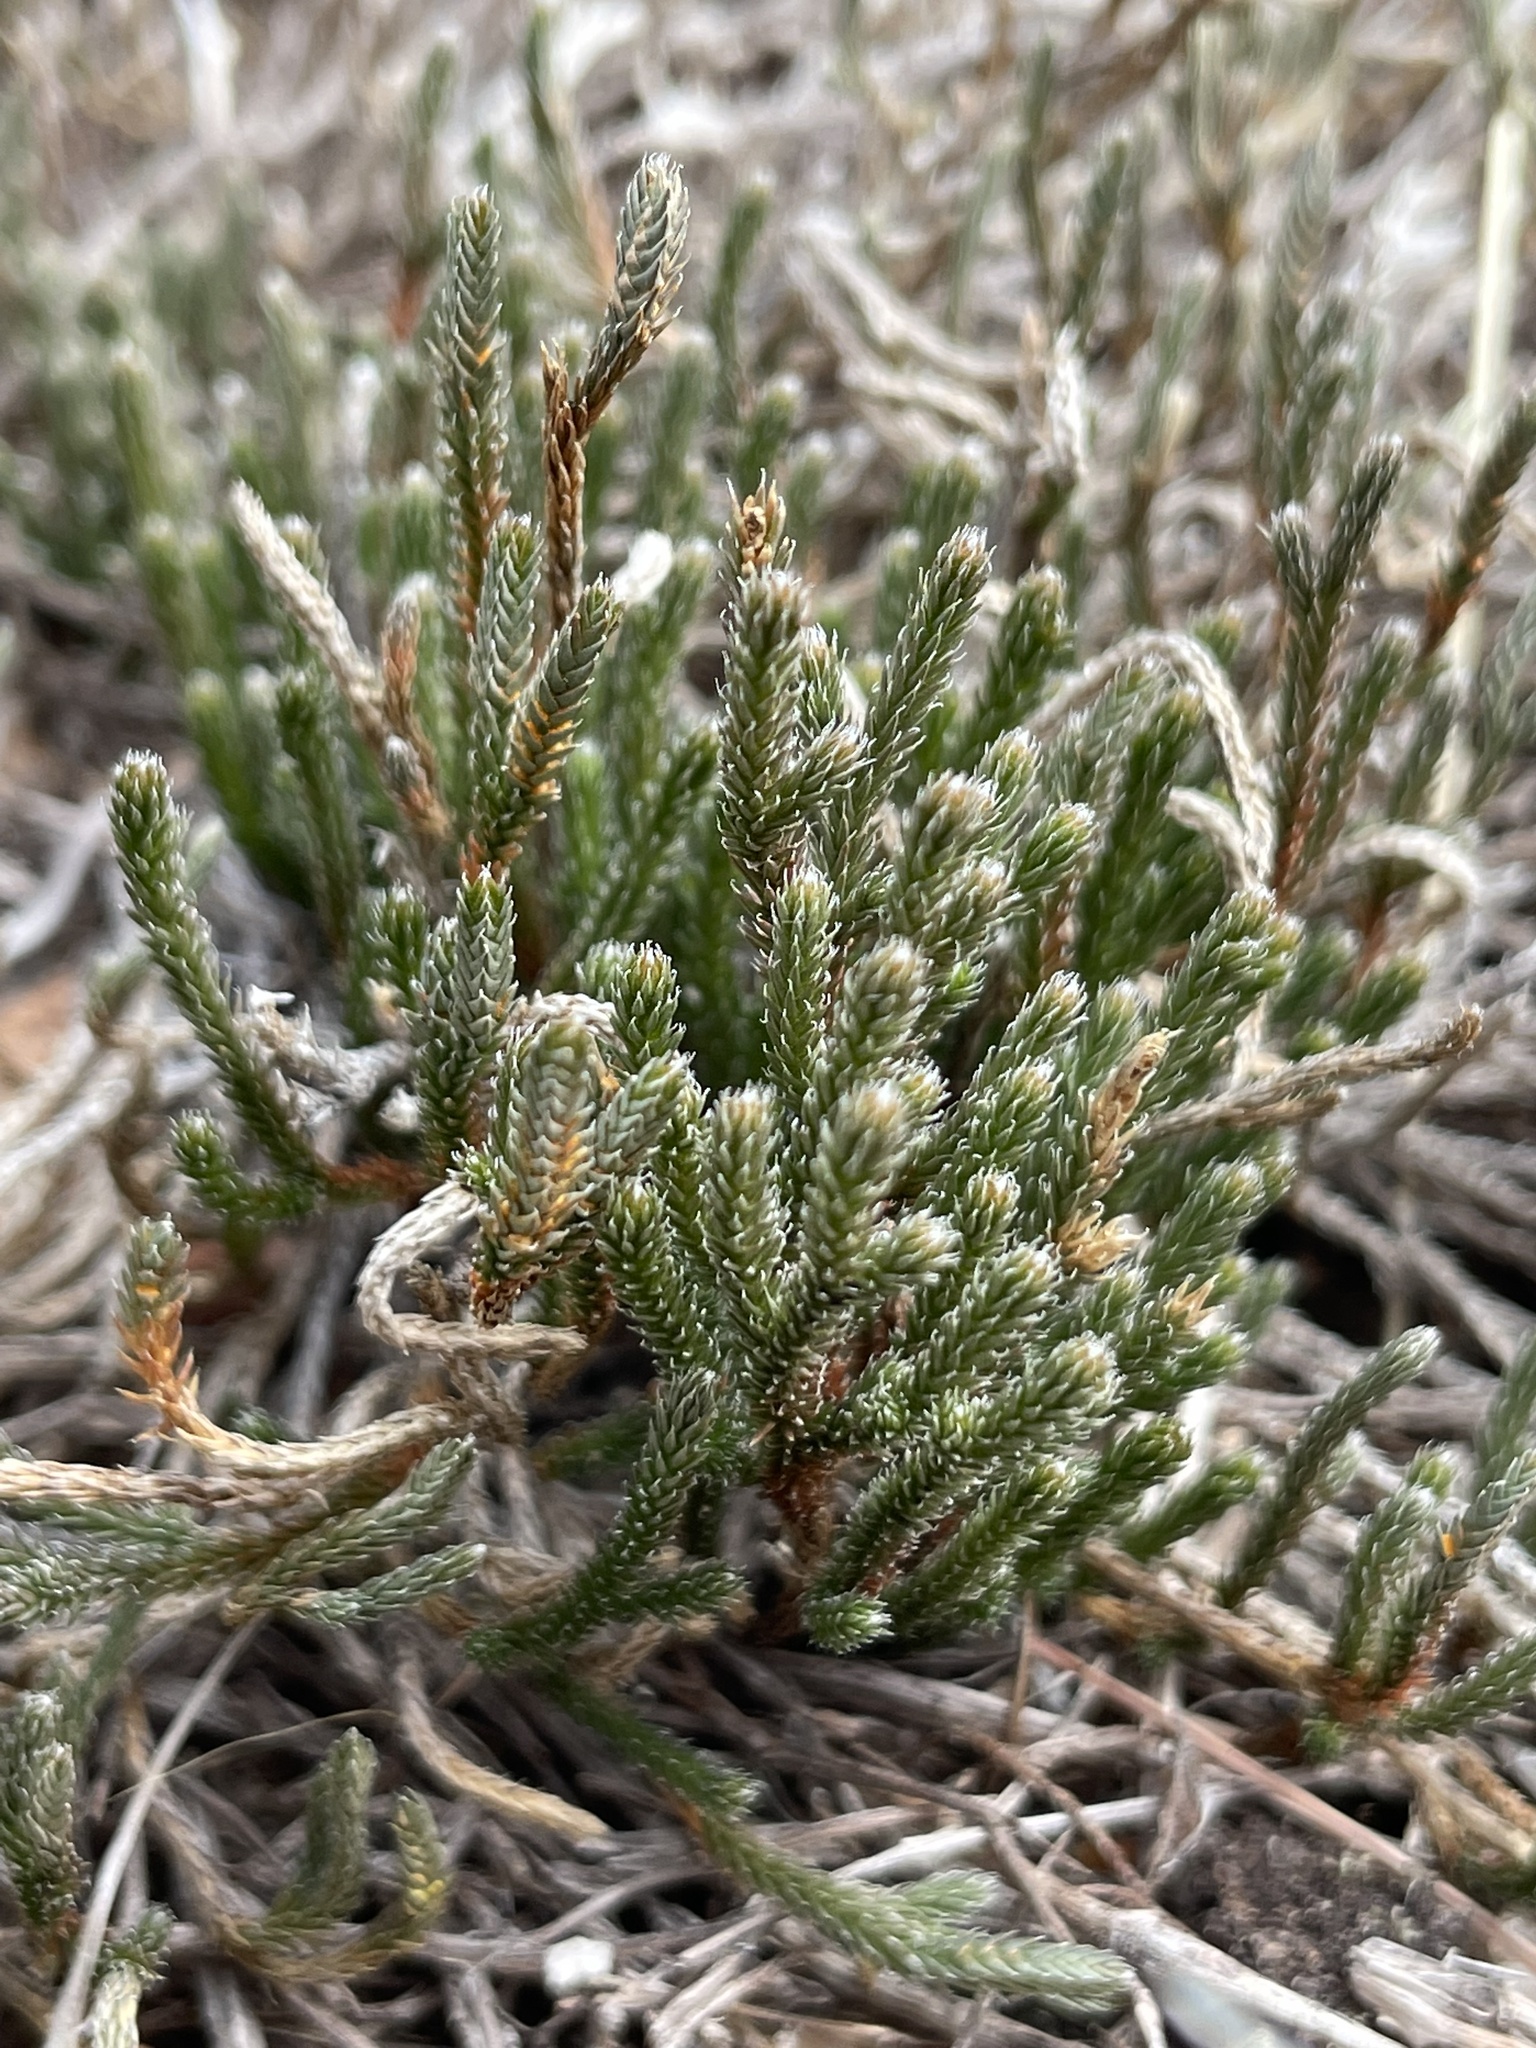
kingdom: Plantae
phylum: Tracheophyta
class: Lycopodiopsida
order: Selaginellales
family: Selaginellaceae
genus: Selaginella
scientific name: Selaginella corallina
